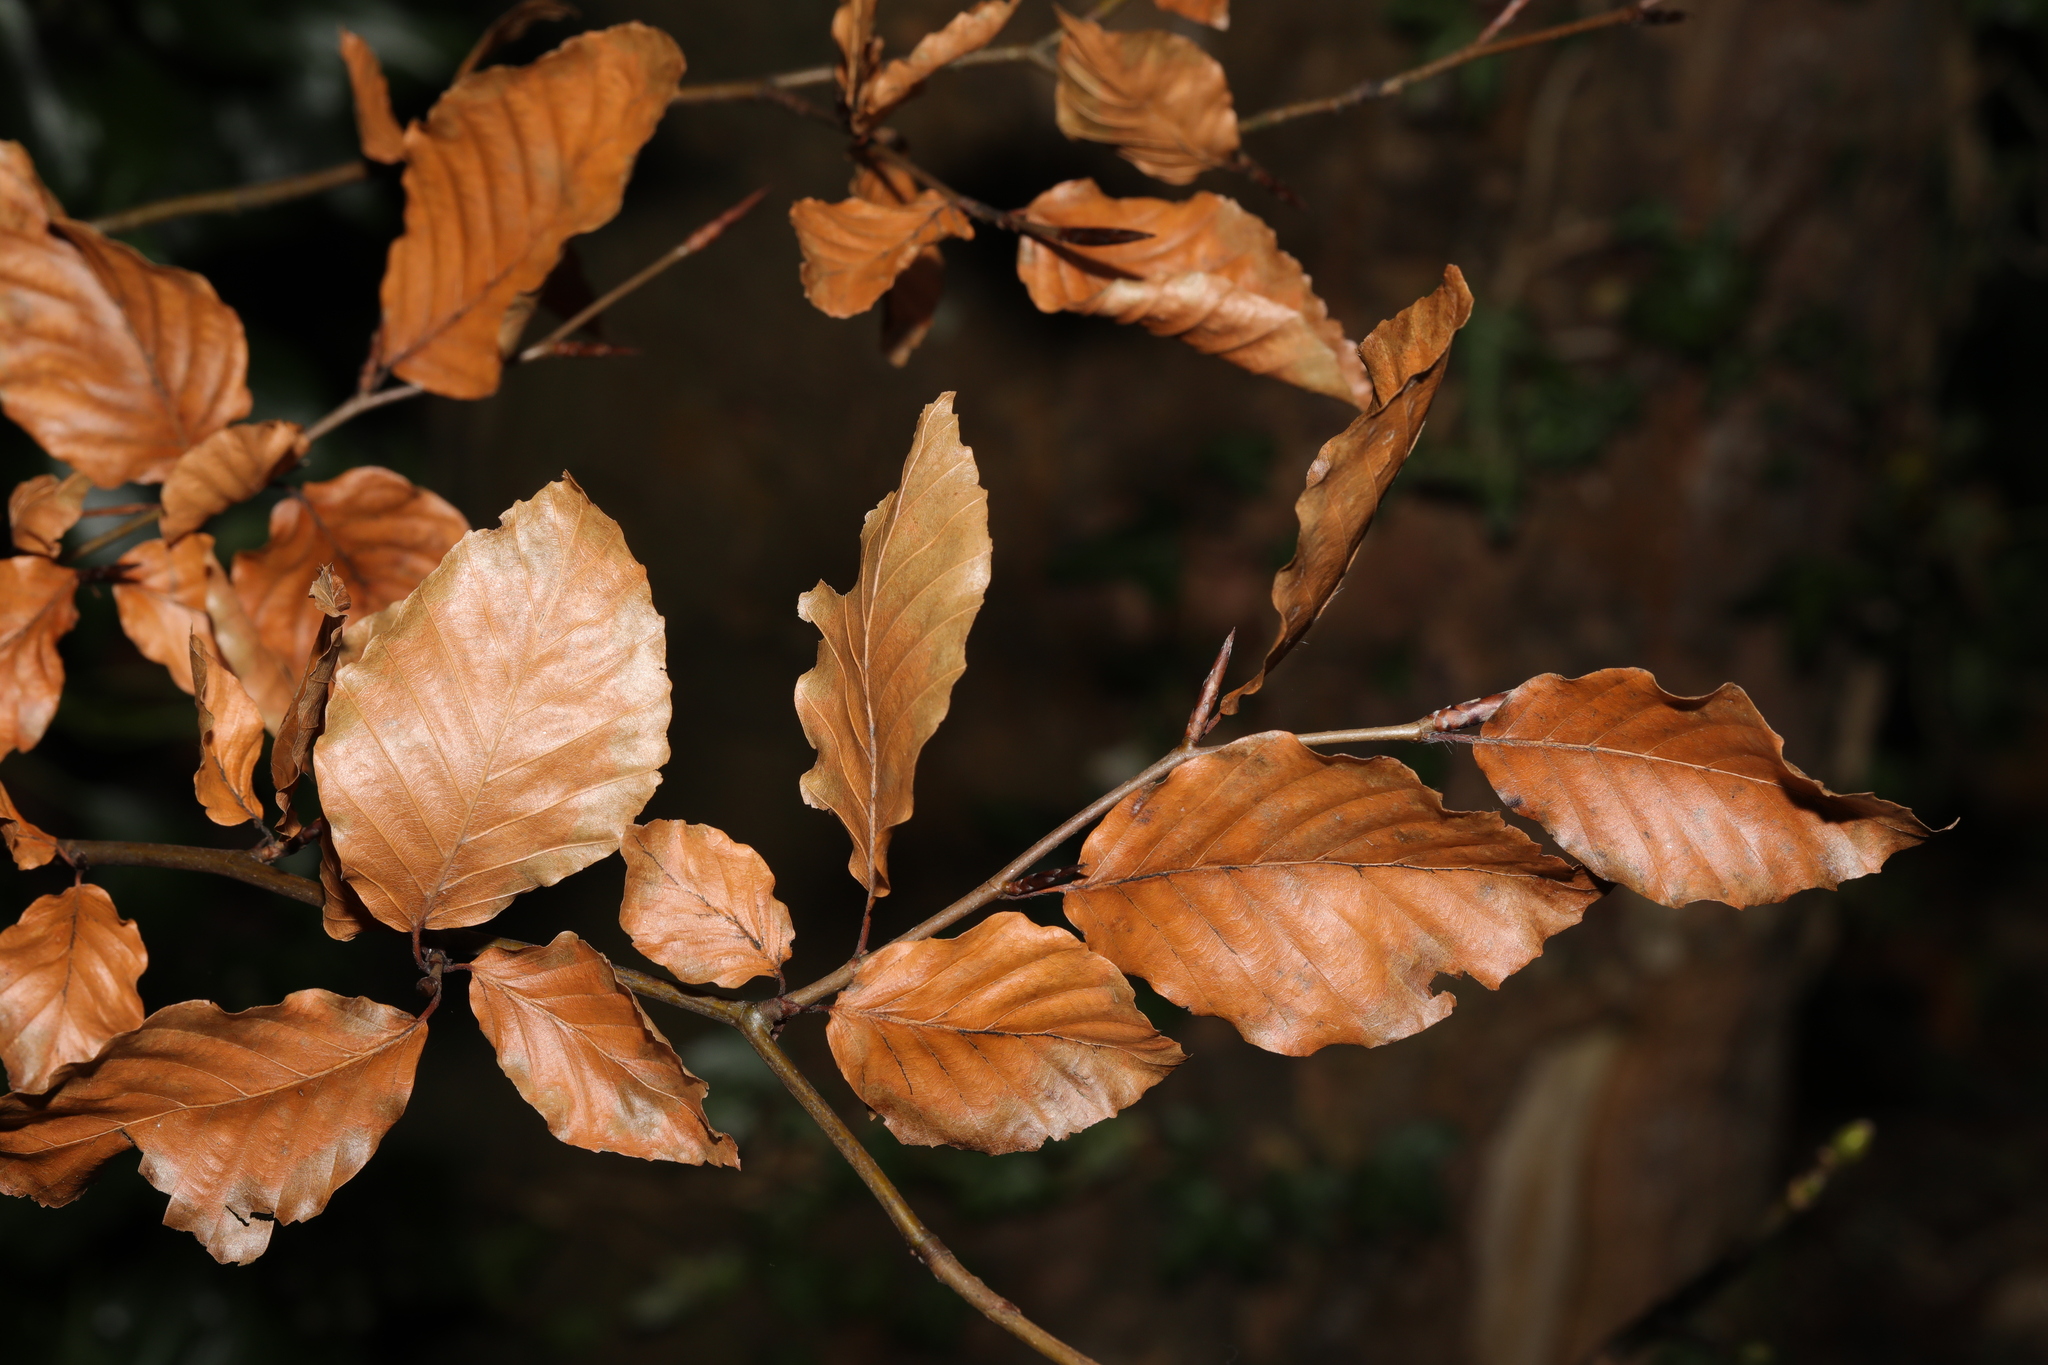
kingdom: Plantae
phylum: Tracheophyta
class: Magnoliopsida
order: Fagales
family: Fagaceae
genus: Fagus
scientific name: Fagus sylvatica
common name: Beech
